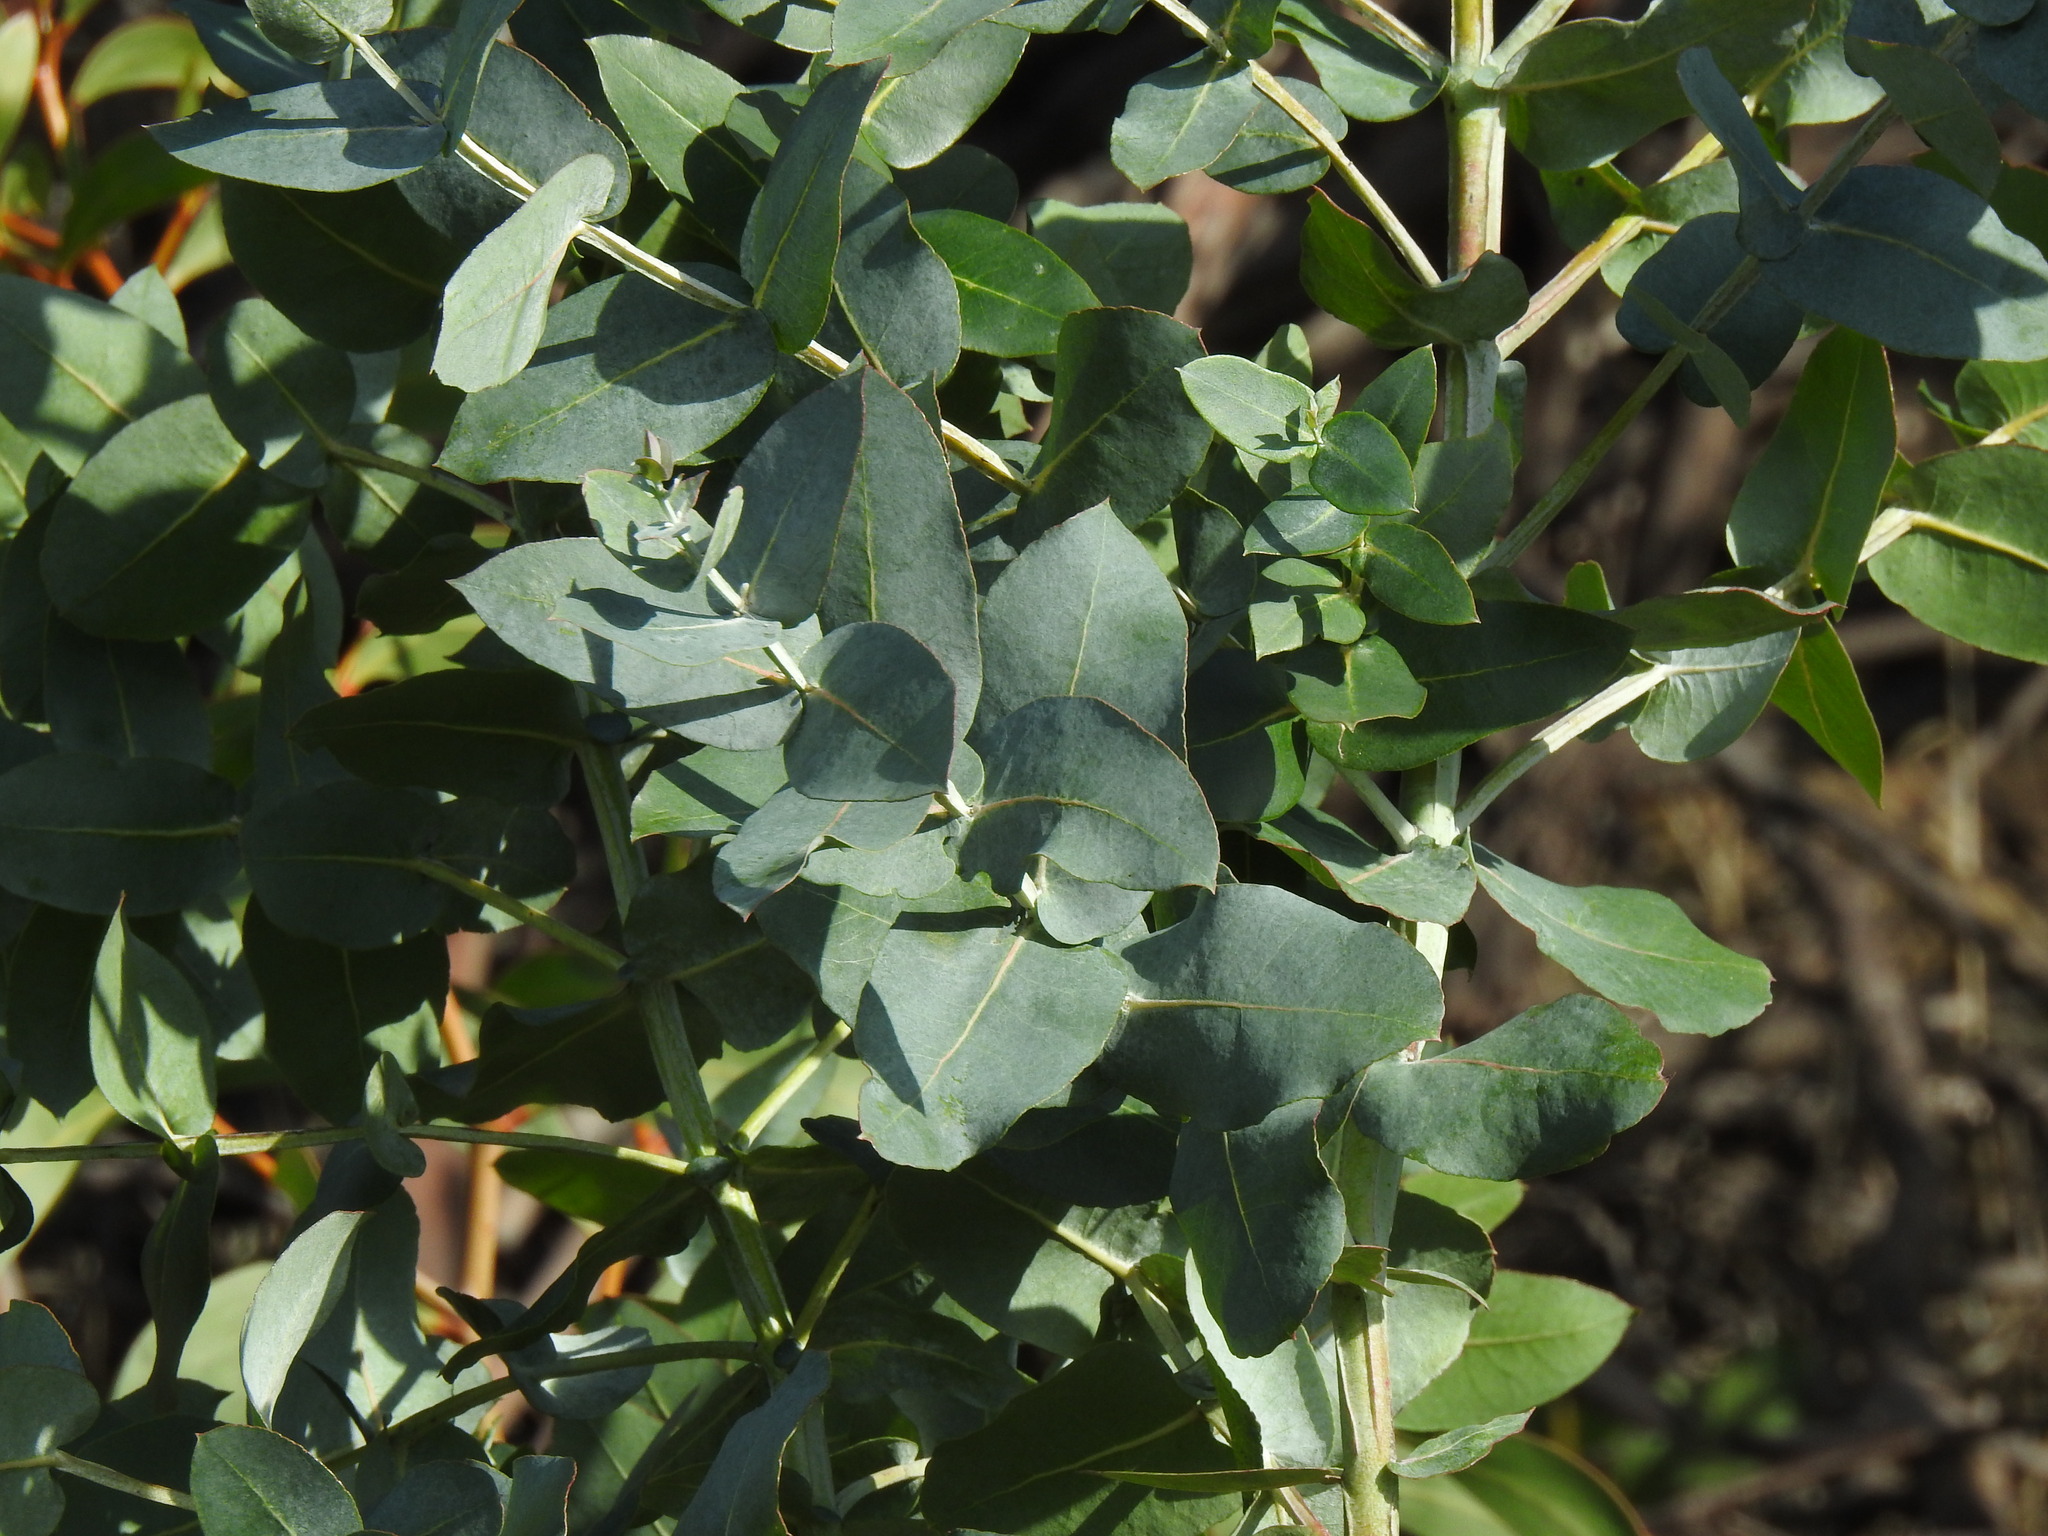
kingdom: Plantae
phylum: Tracheophyta
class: Magnoliopsida
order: Myrtales
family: Myrtaceae
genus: Eucalyptus
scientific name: Eucalyptus globulus
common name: Southern blue-gum
